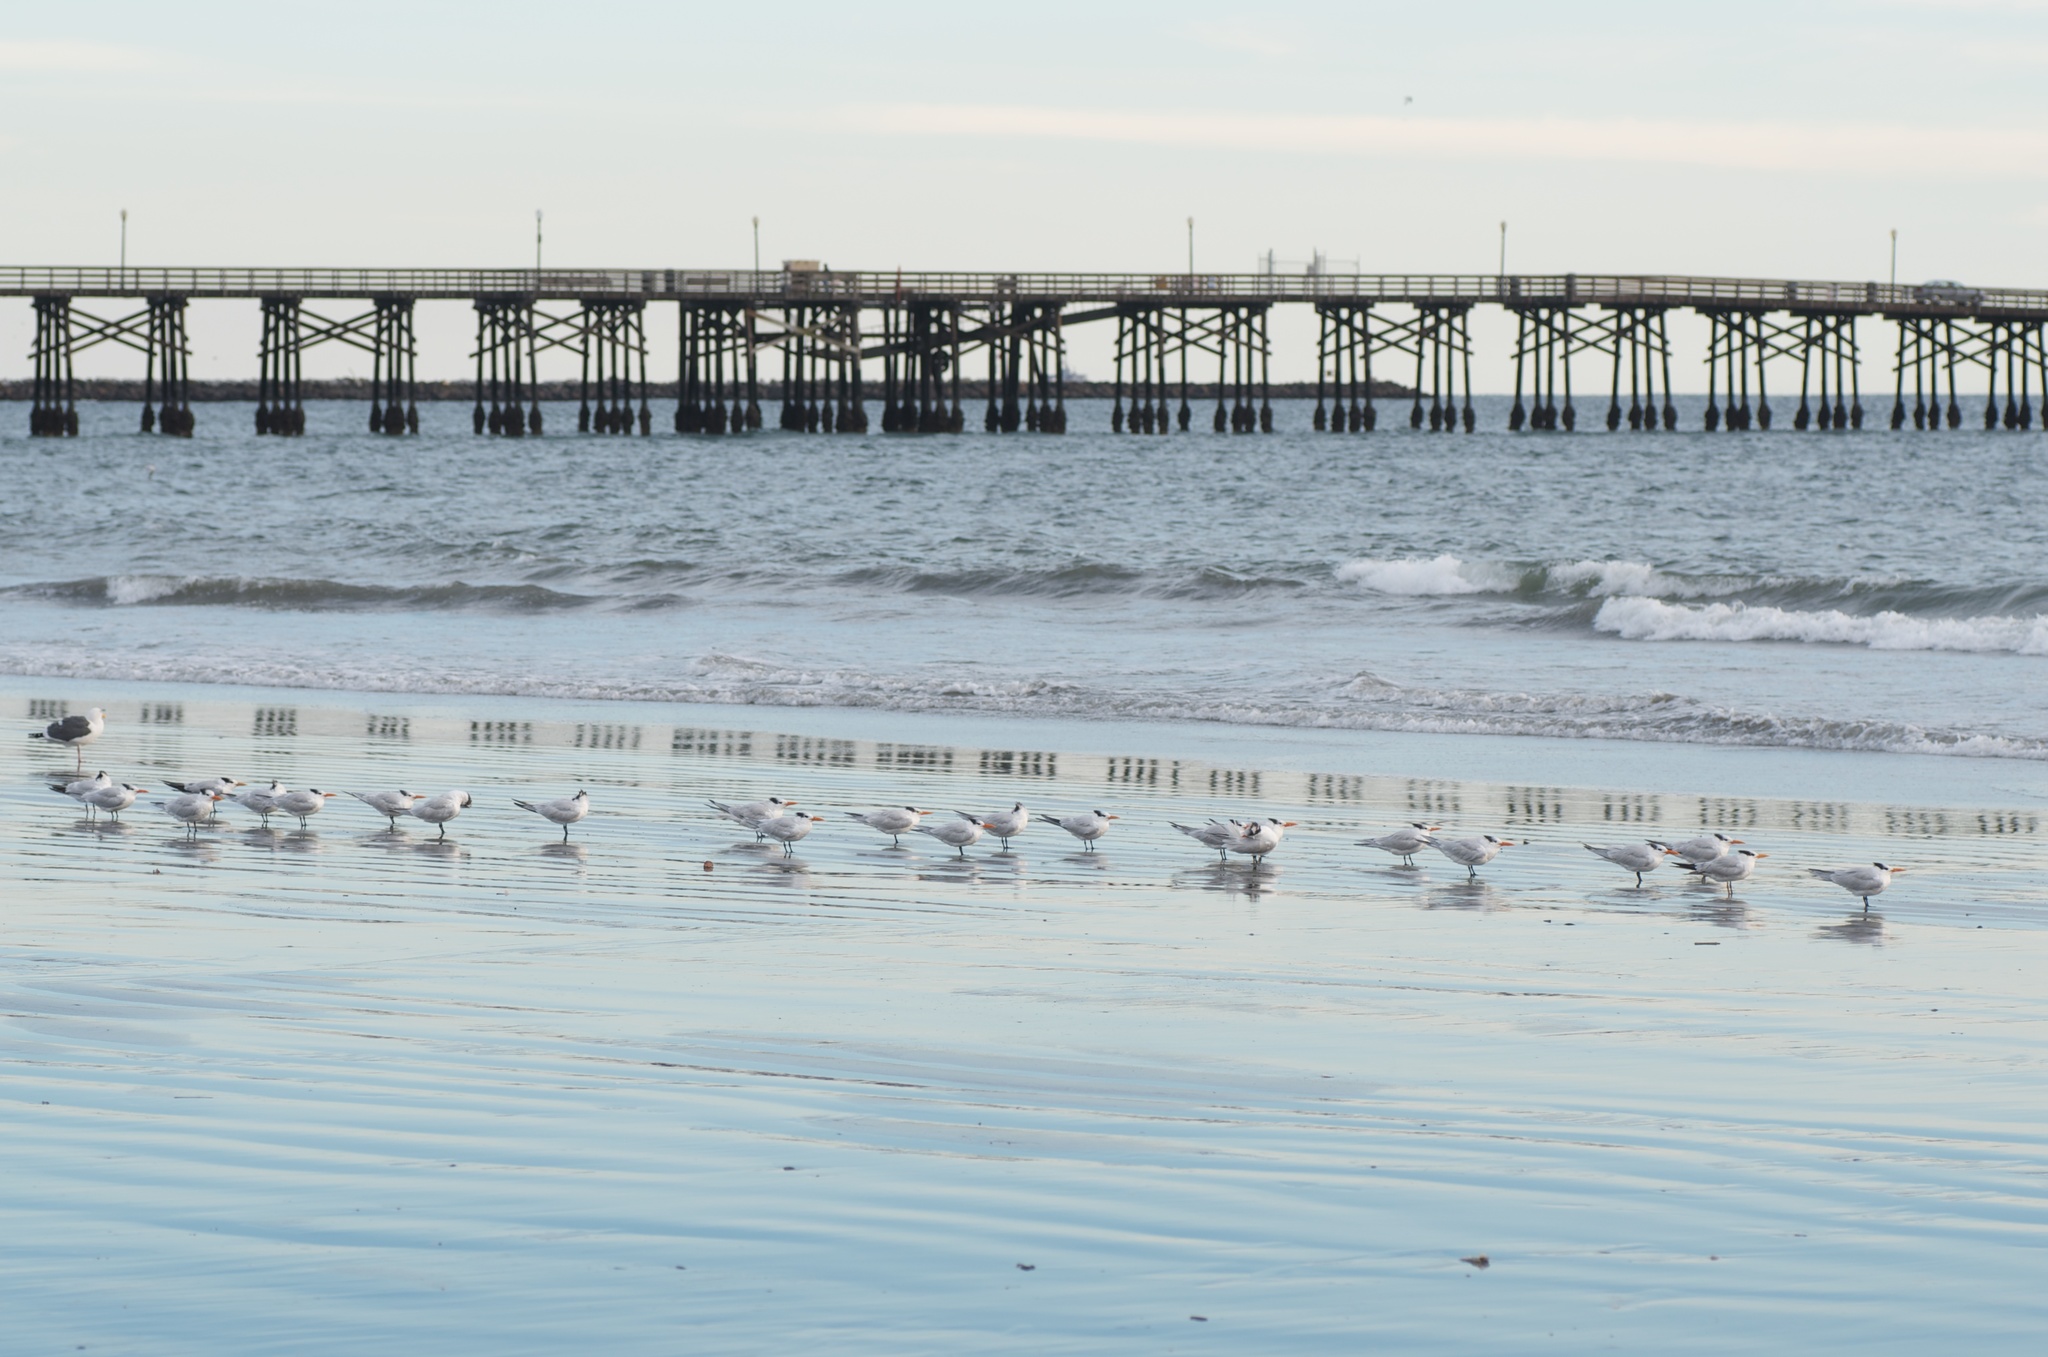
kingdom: Animalia
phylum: Chordata
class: Aves
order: Charadriiformes
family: Laridae
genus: Thalasseus
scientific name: Thalasseus maximus
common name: Royal tern
